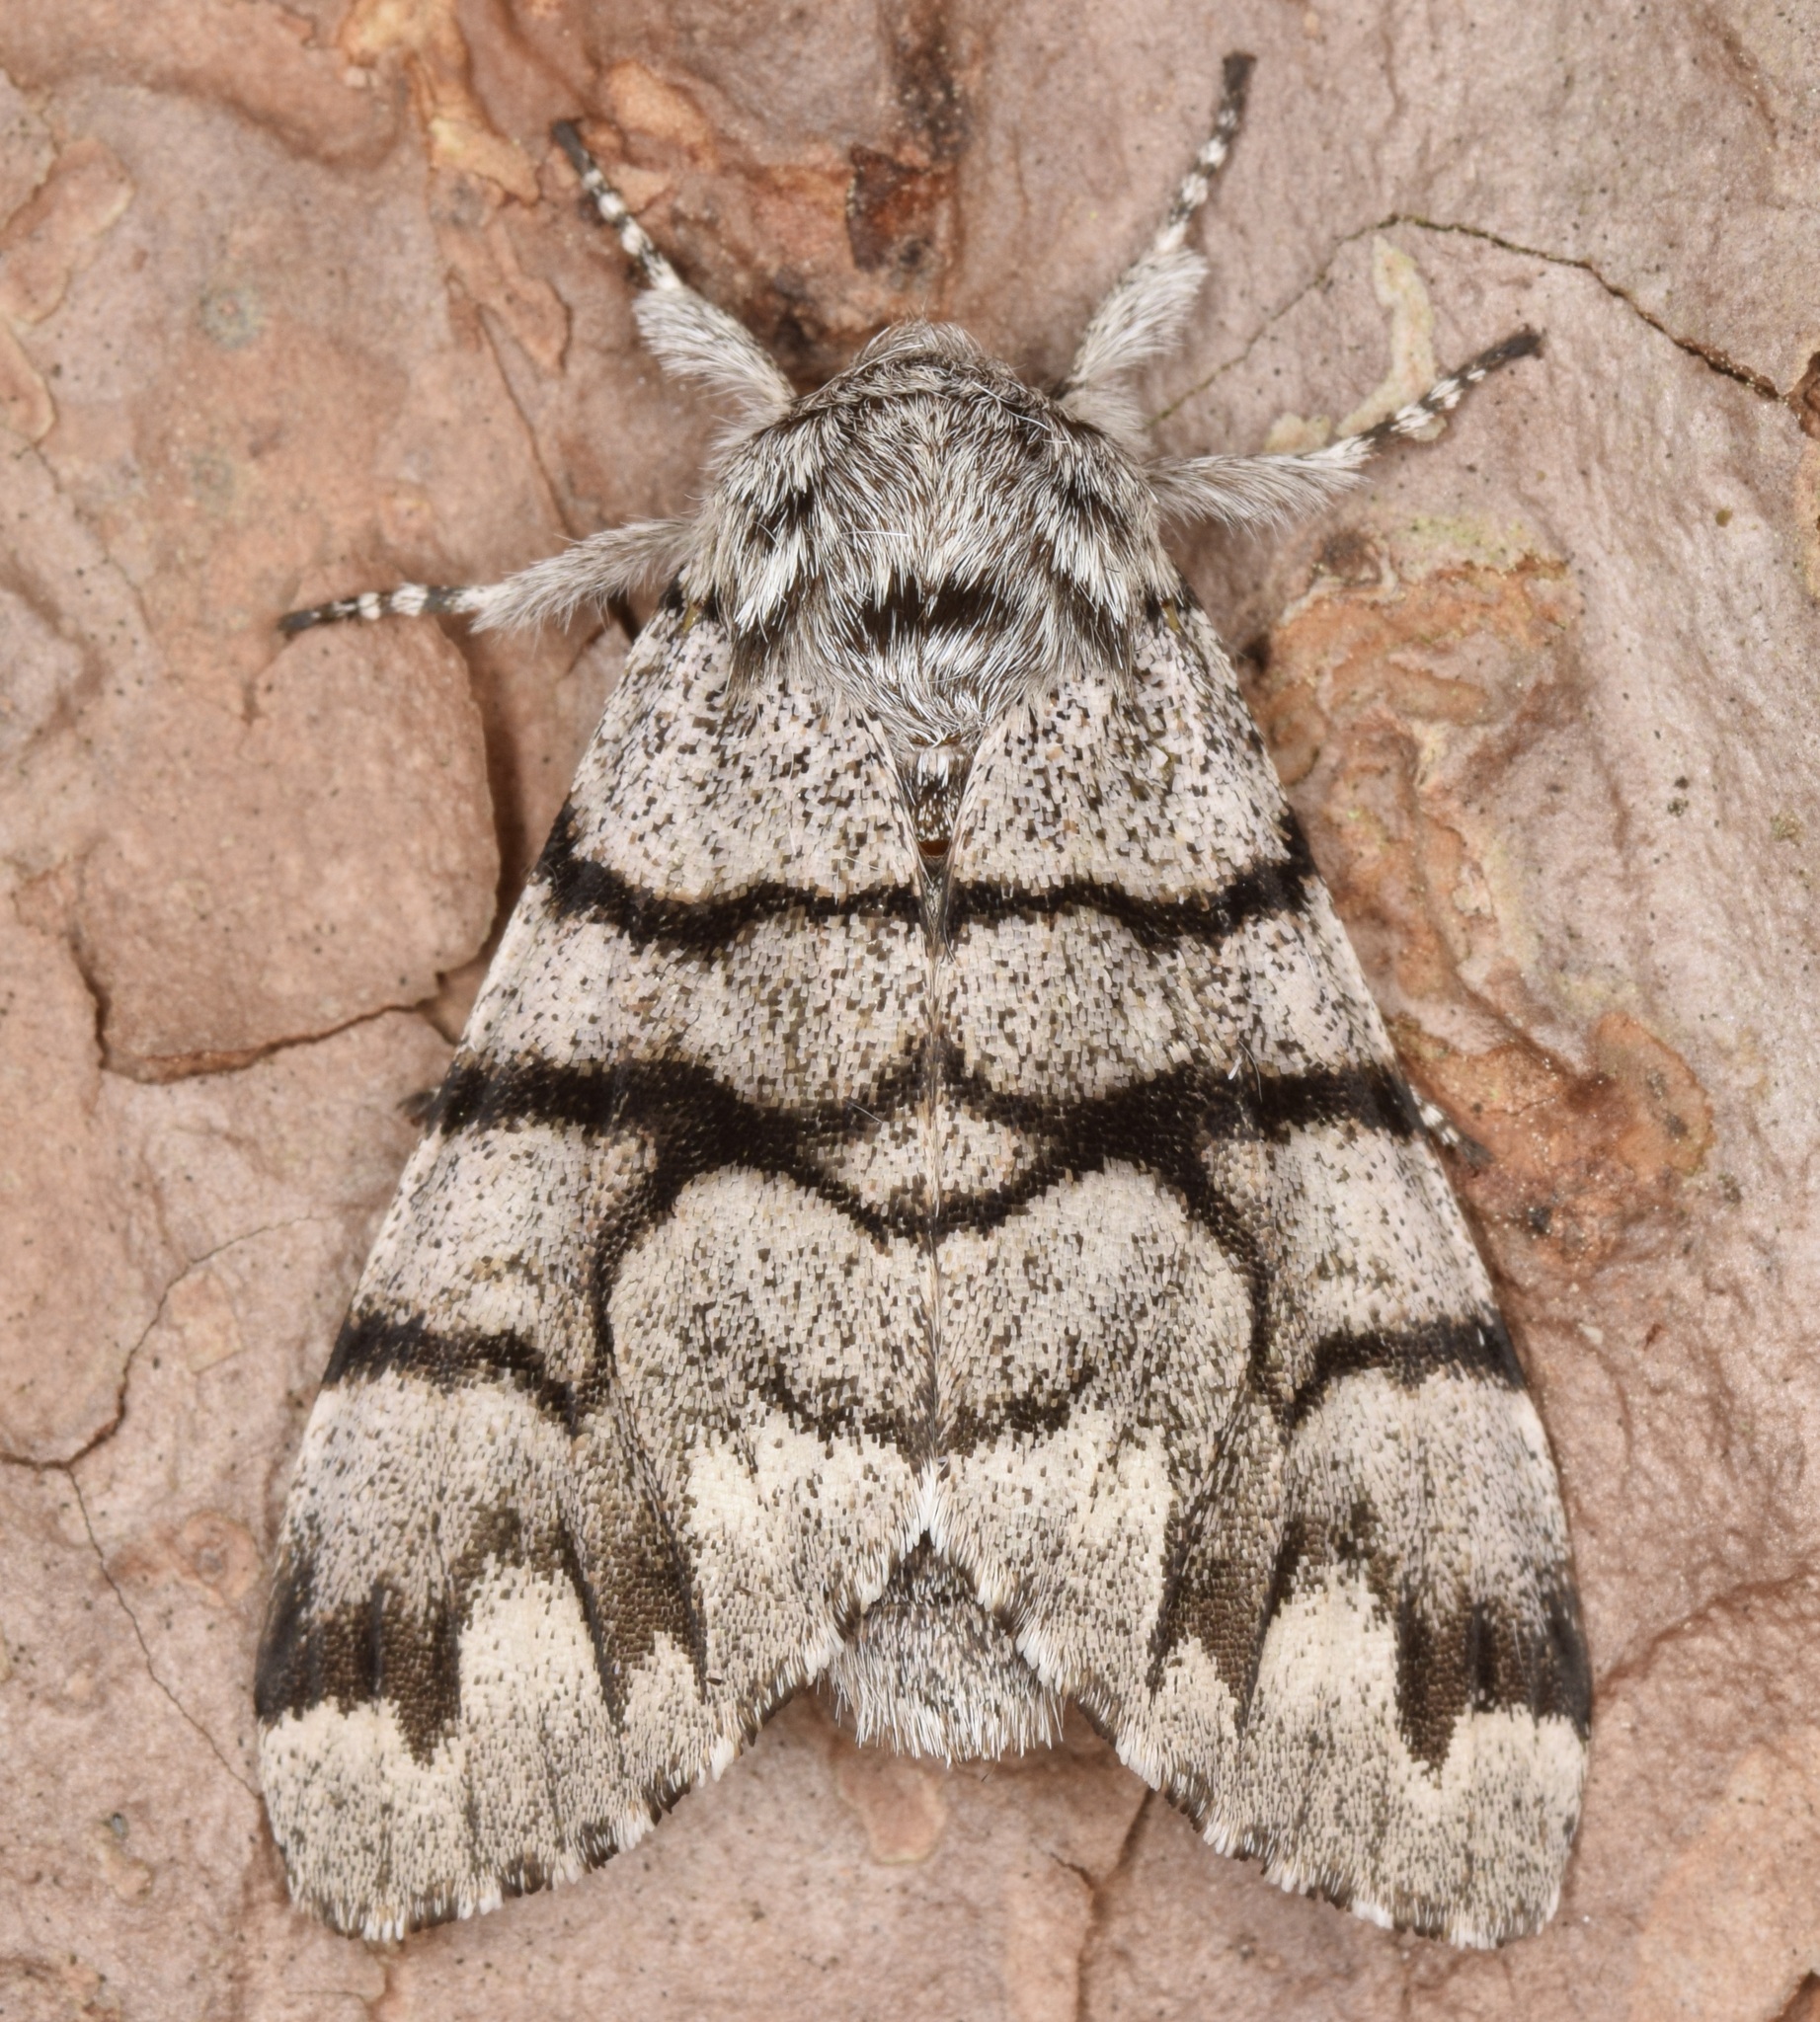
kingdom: Animalia
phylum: Arthropoda
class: Insecta
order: Lepidoptera
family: Noctuidae
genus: Panthea
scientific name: Panthea furcilla
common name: Eastern panthea moth
